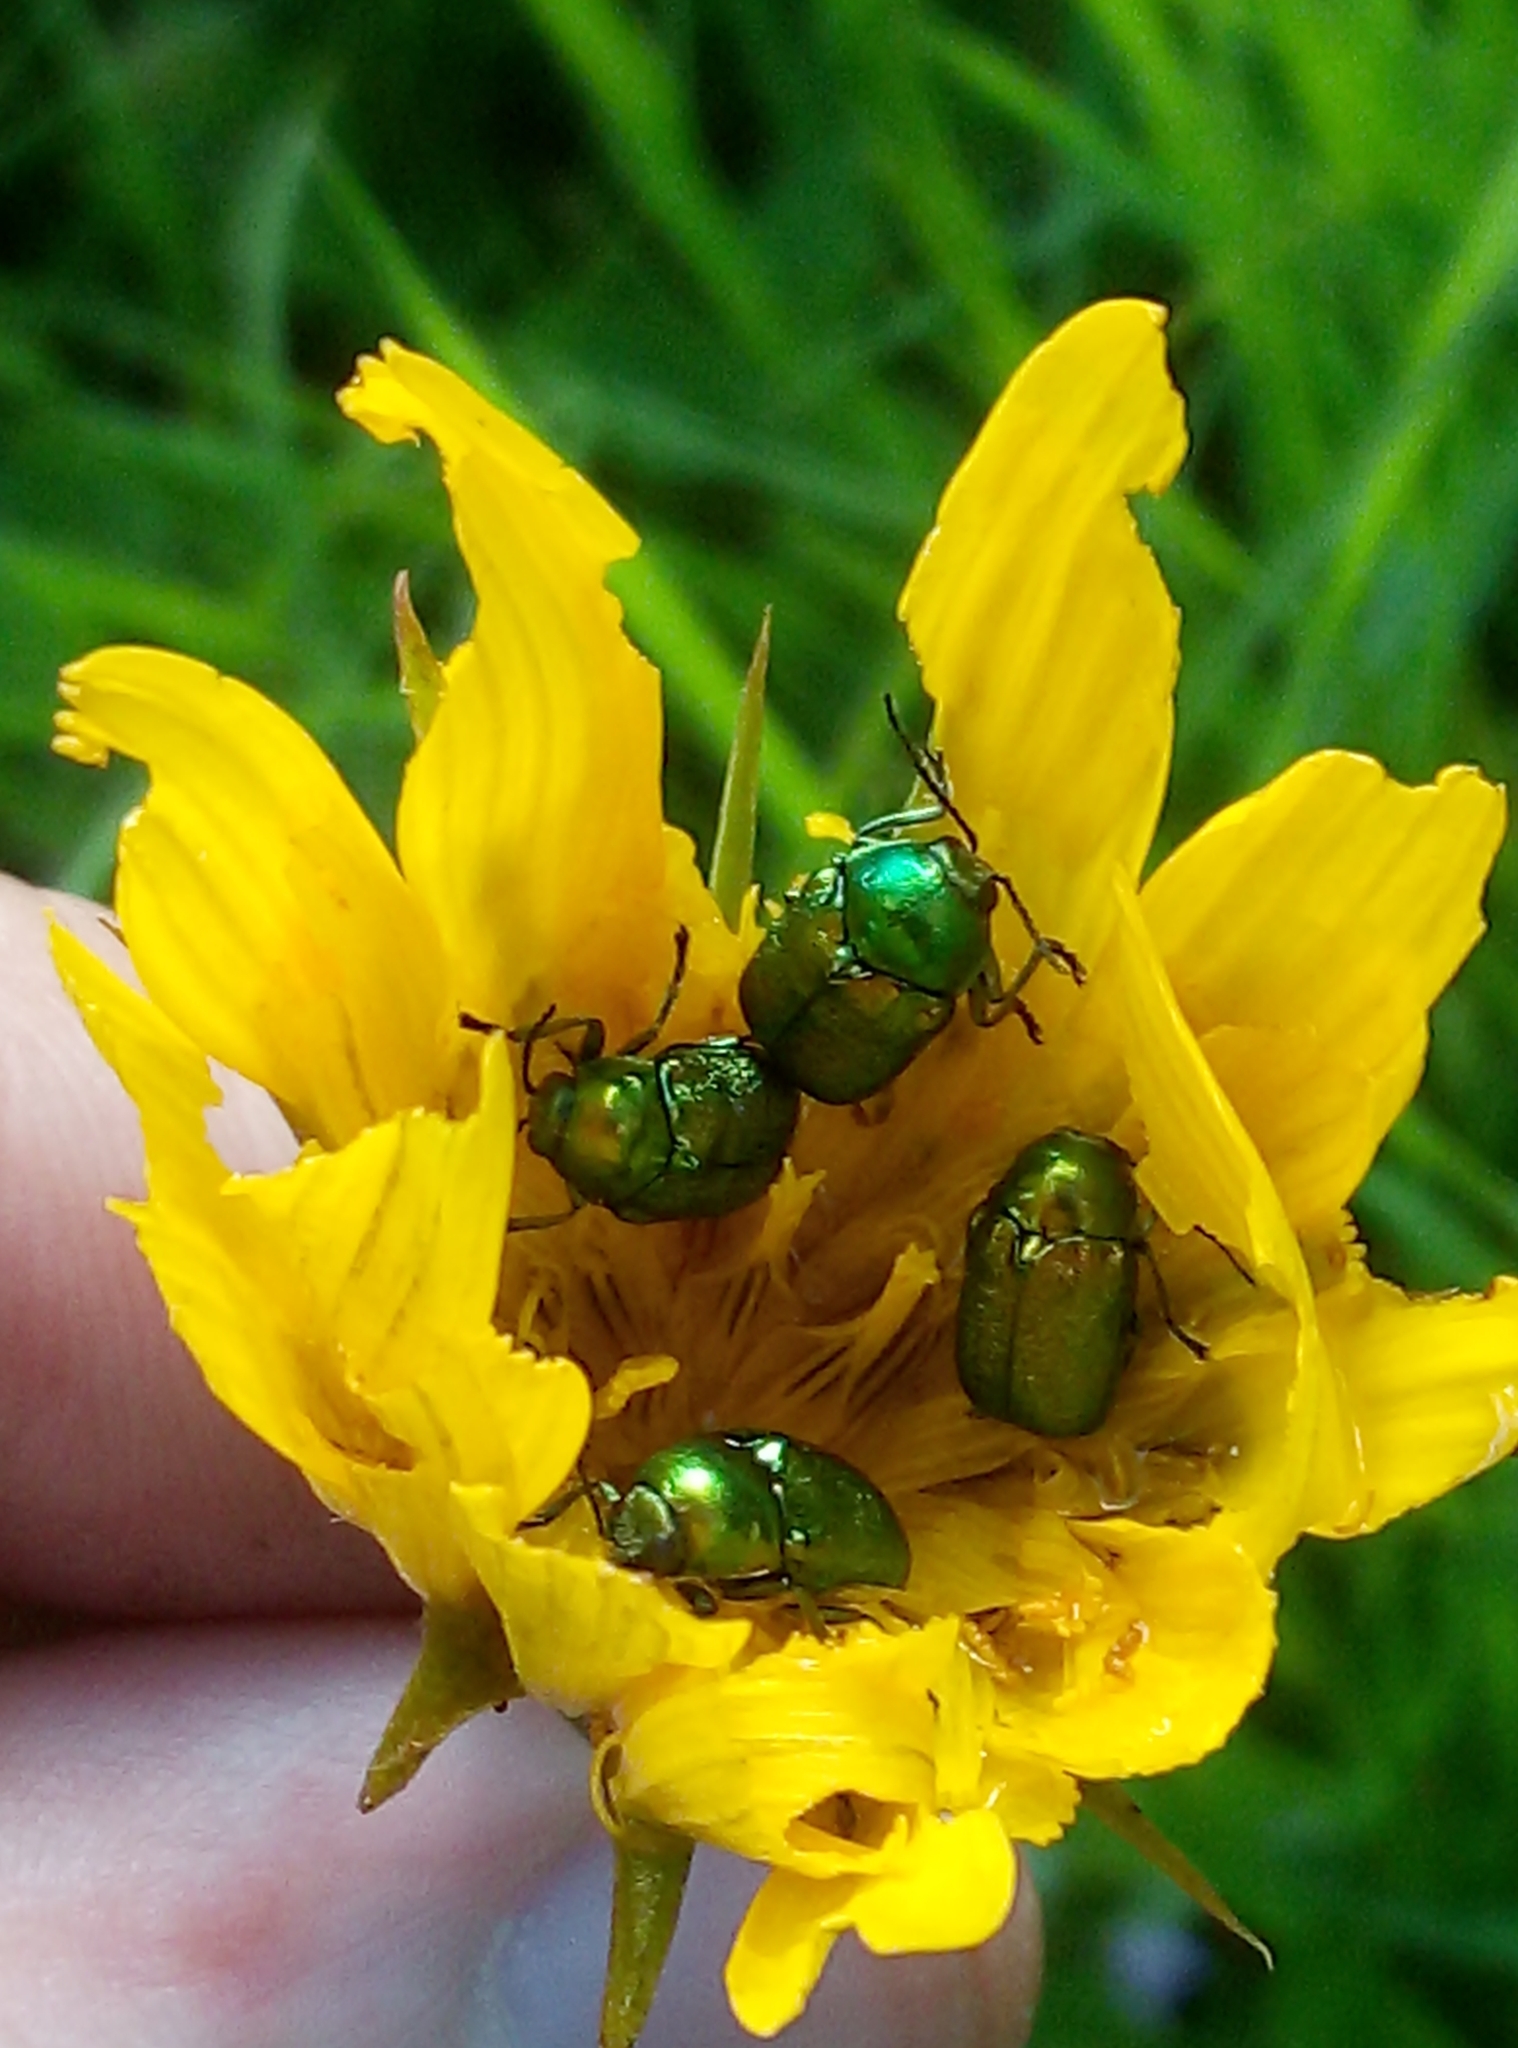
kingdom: Animalia
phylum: Arthropoda
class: Insecta
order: Coleoptera
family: Chrysomelidae
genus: Cryptocephalus
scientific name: Cryptocephalus
